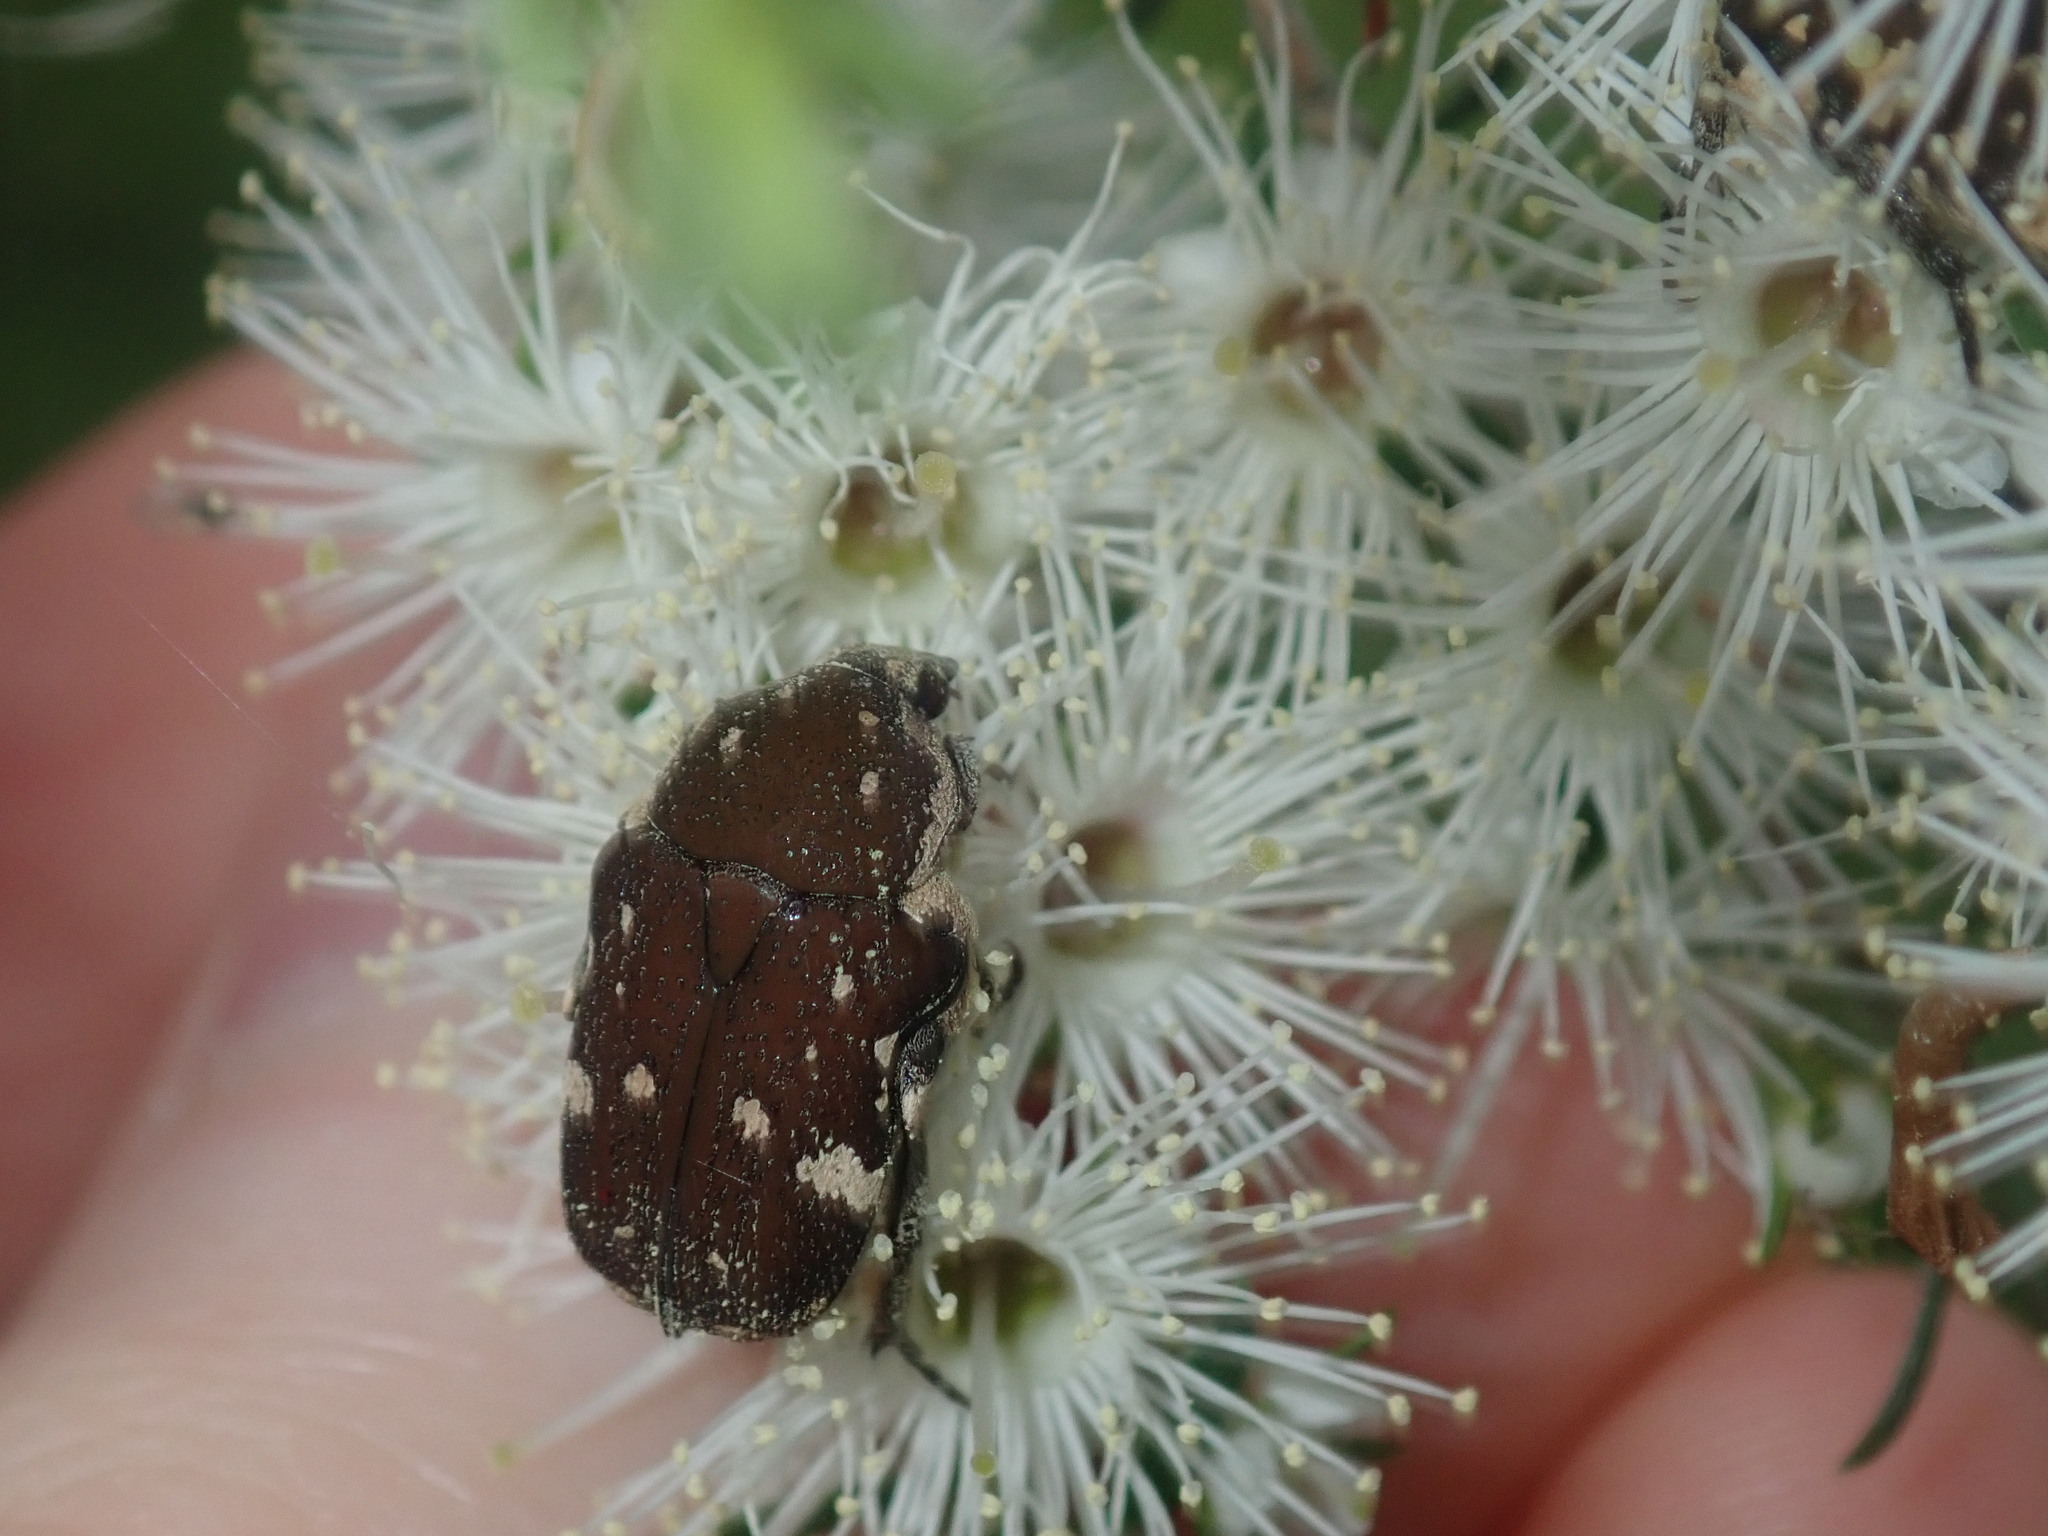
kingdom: Animalia
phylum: Arthropoda
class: Insecta
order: Coleoptera
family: Scarabaeidae
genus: Glycyphana
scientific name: Glycyphana stolata
